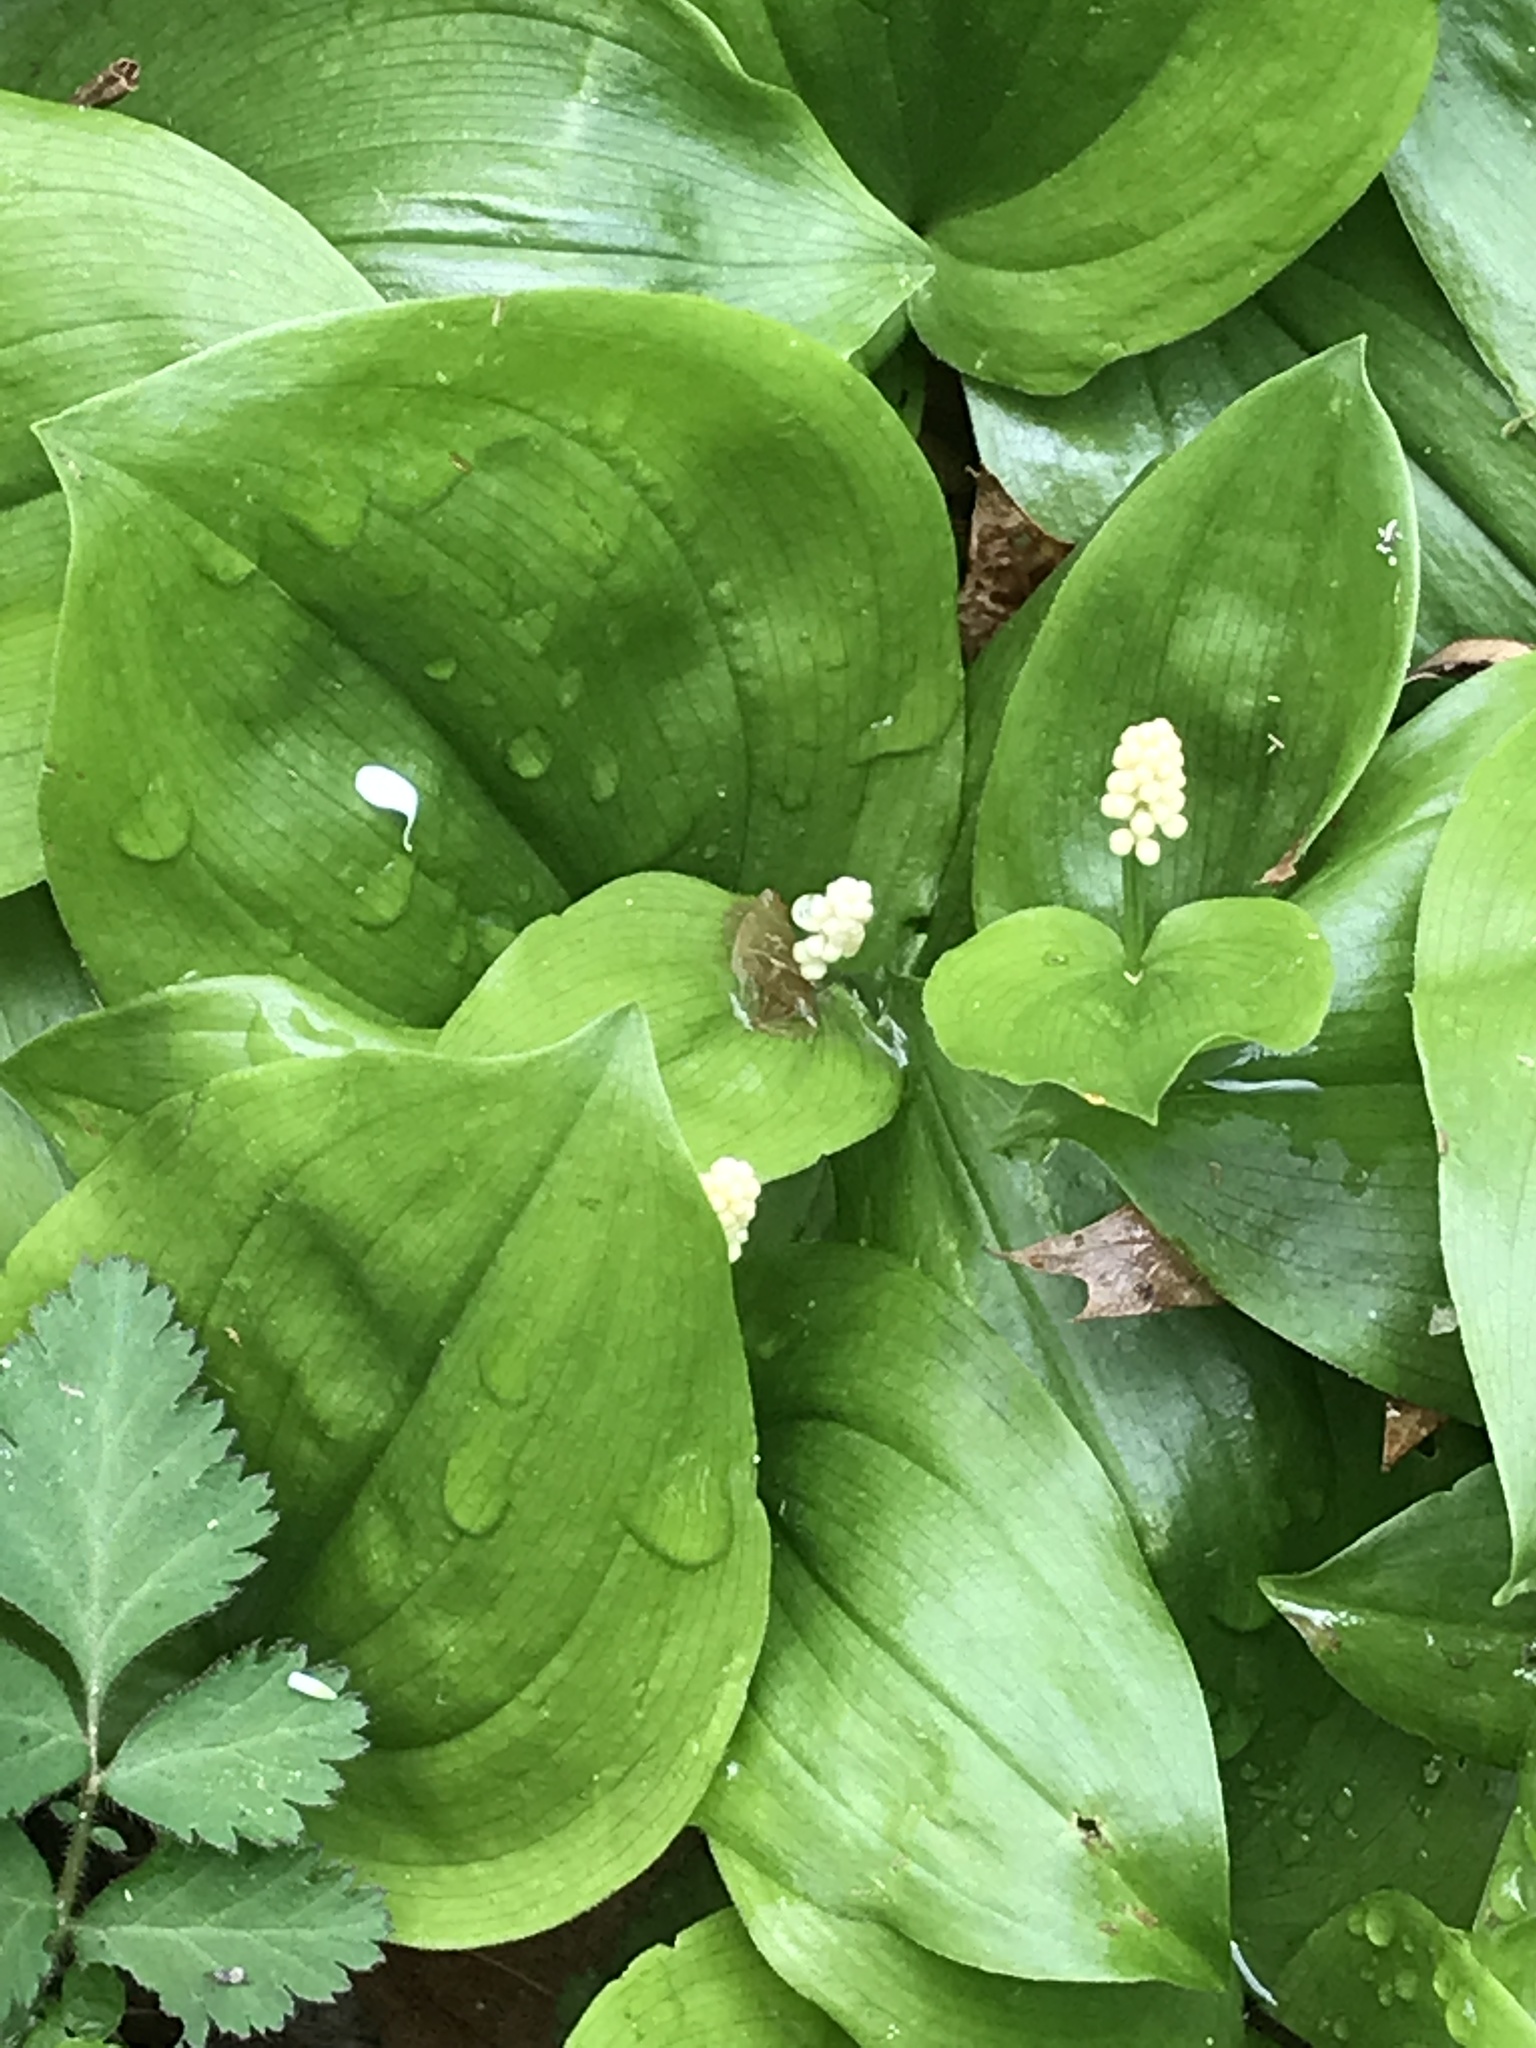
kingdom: Plantae
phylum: Tracheophyta
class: Liliopsida
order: Asparagales
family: Asparagaceae
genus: Maianthemum
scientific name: Maianthemum canadense
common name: False lily-of-the-valley
